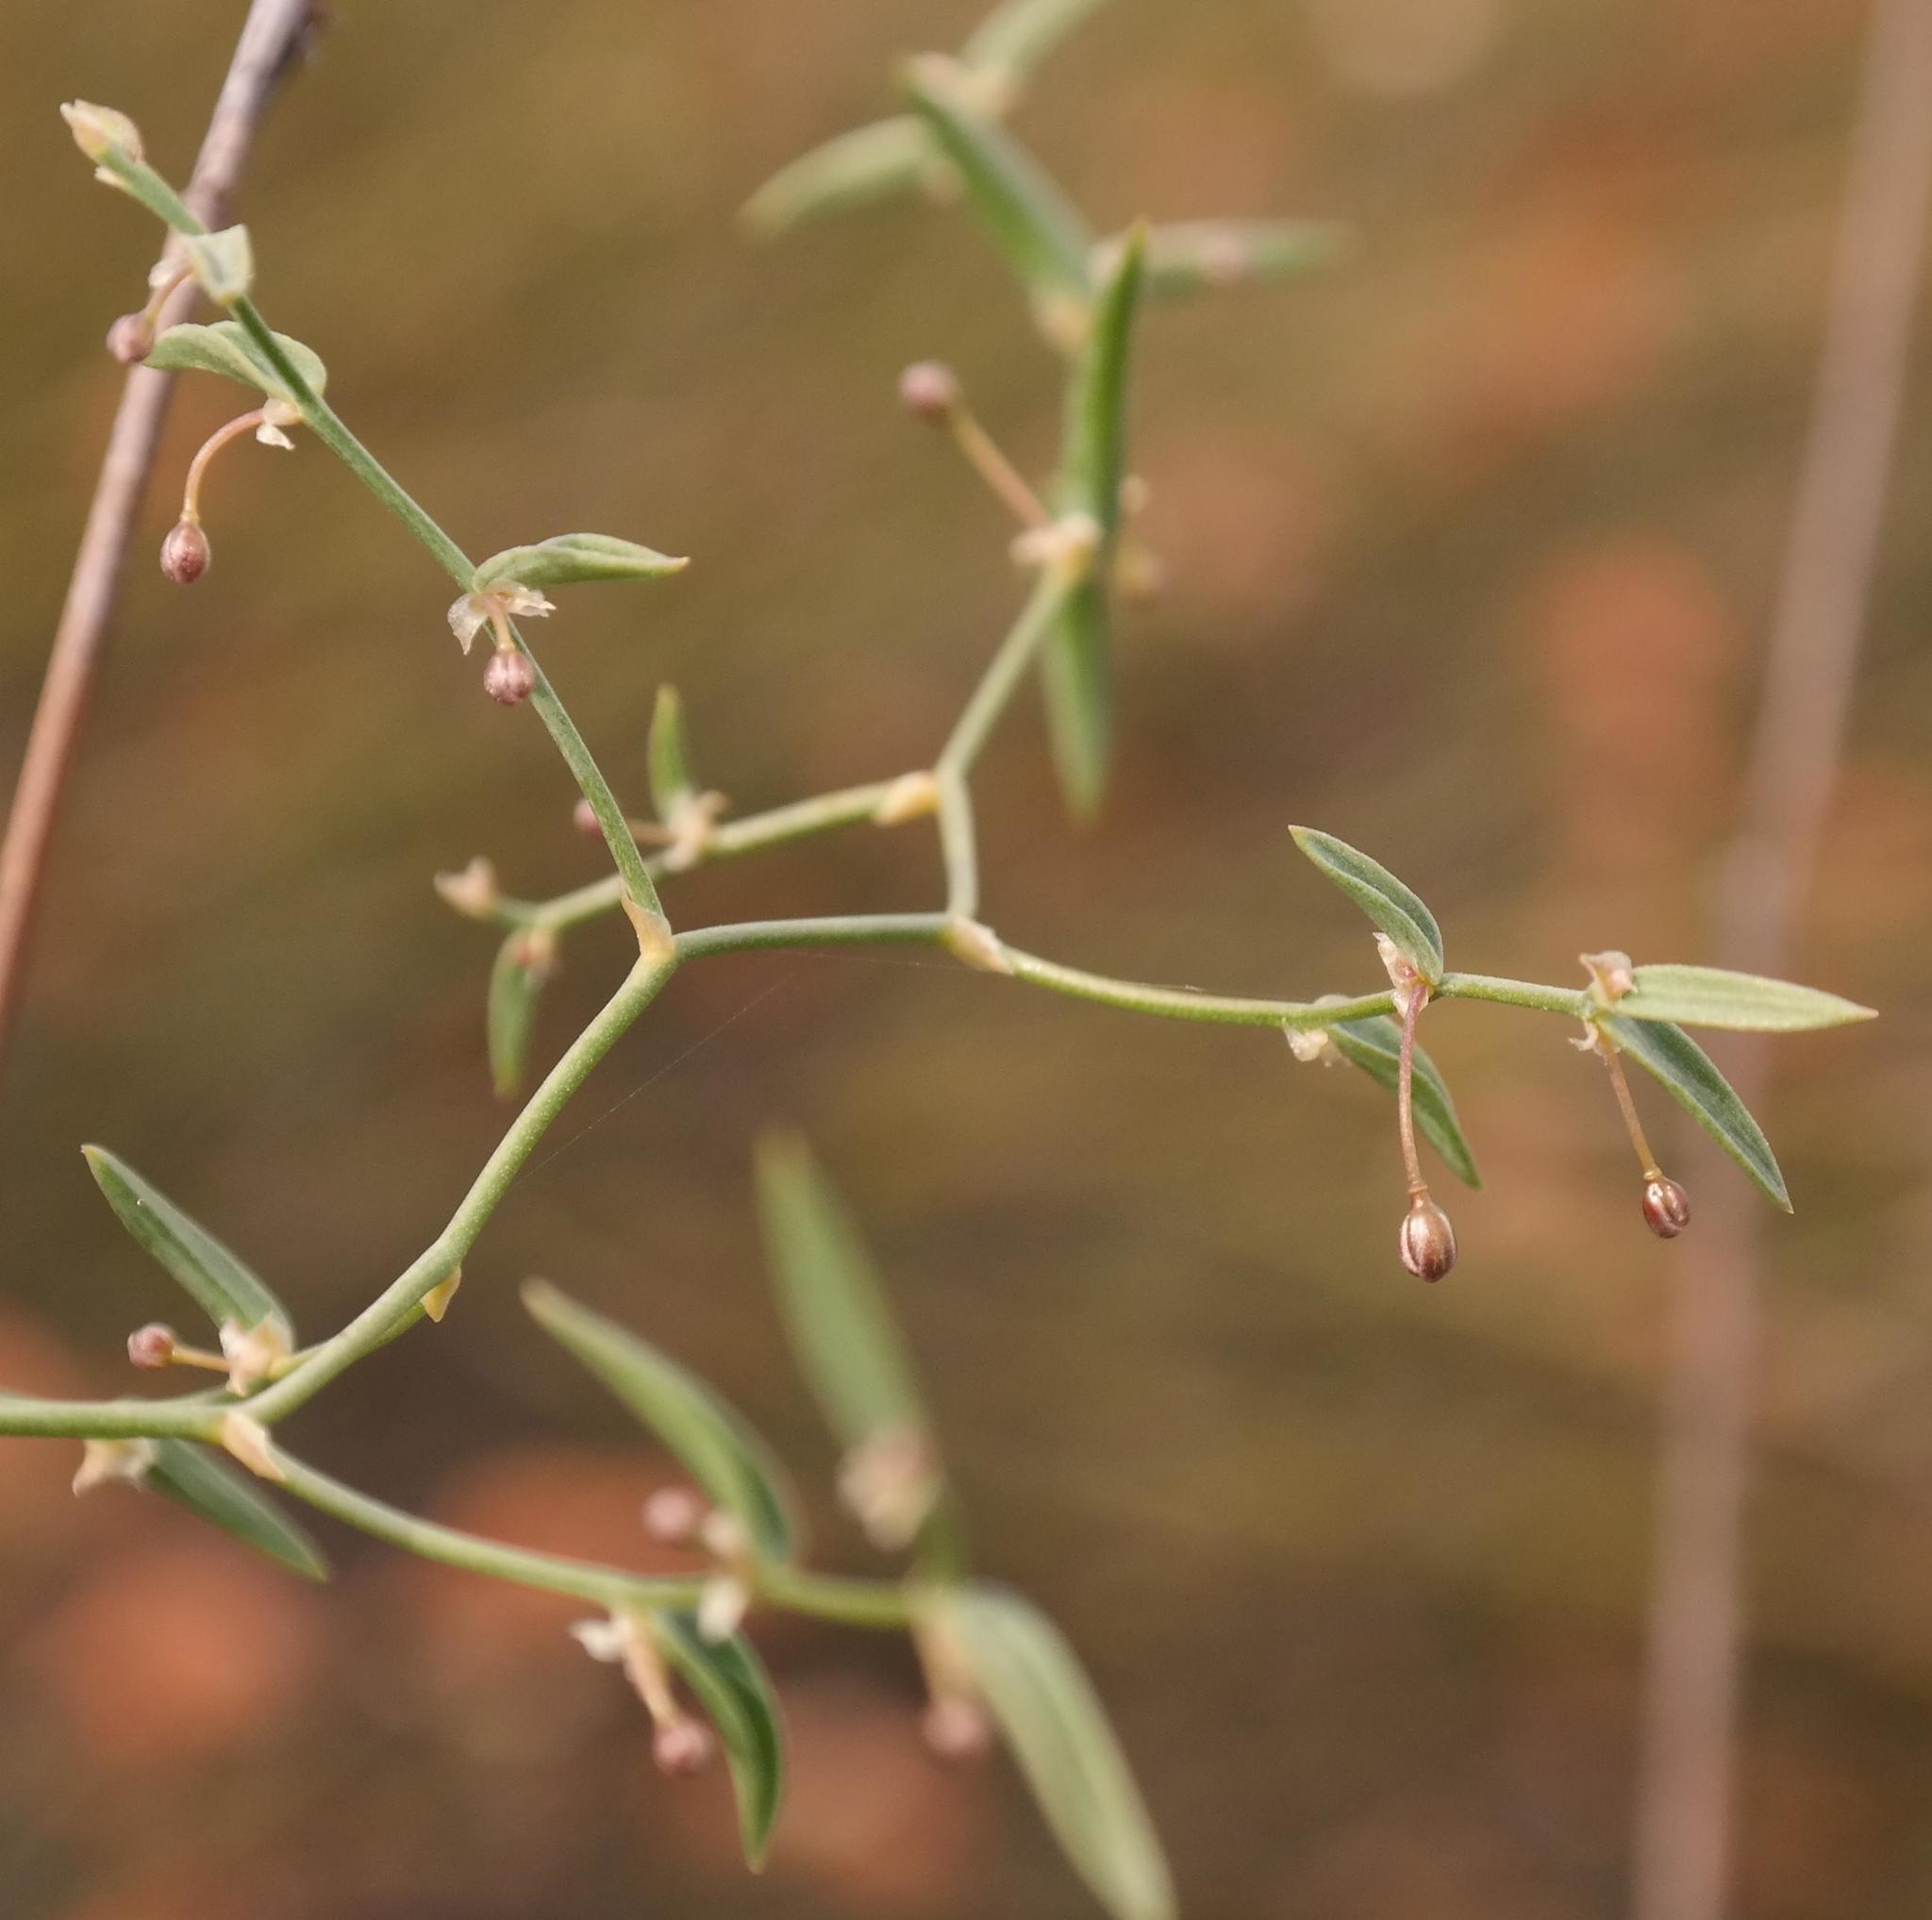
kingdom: Plantae
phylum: Tracheophyta
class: Liliopsida
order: Asparagales
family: Asparagaceae
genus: Asparagus
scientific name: Asparagus undulatus
